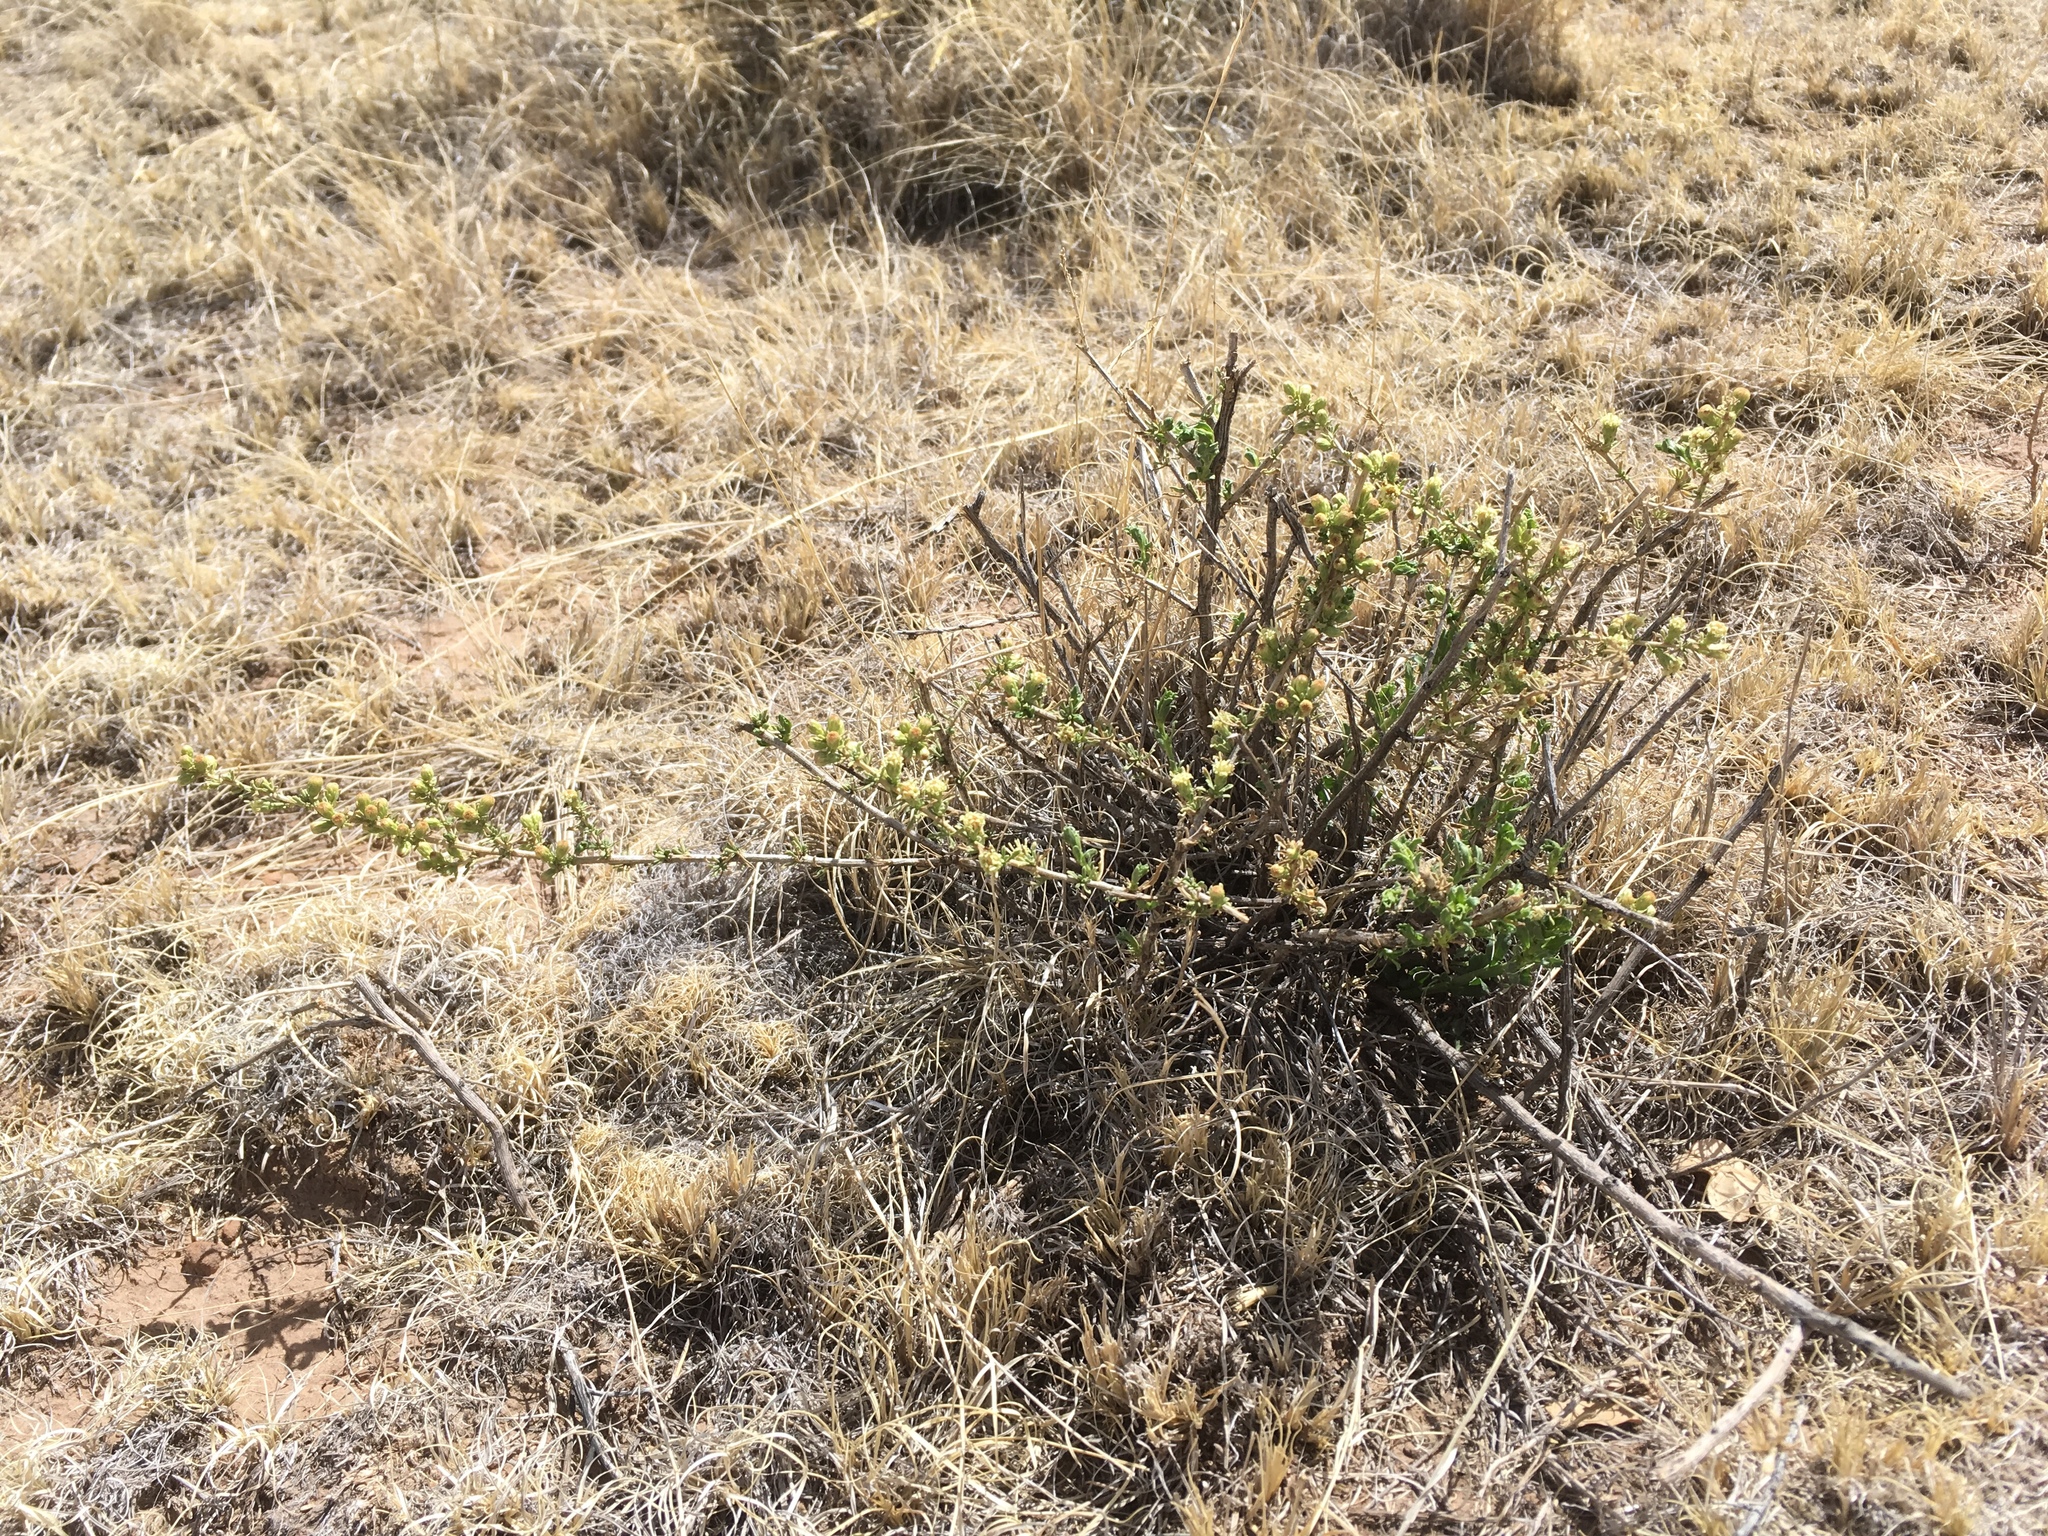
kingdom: Plantae
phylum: Tracheophyta
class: Magnoliopsida
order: Asterales
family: Asteraceae
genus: Baccharis
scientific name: Baccharis pteronioides
